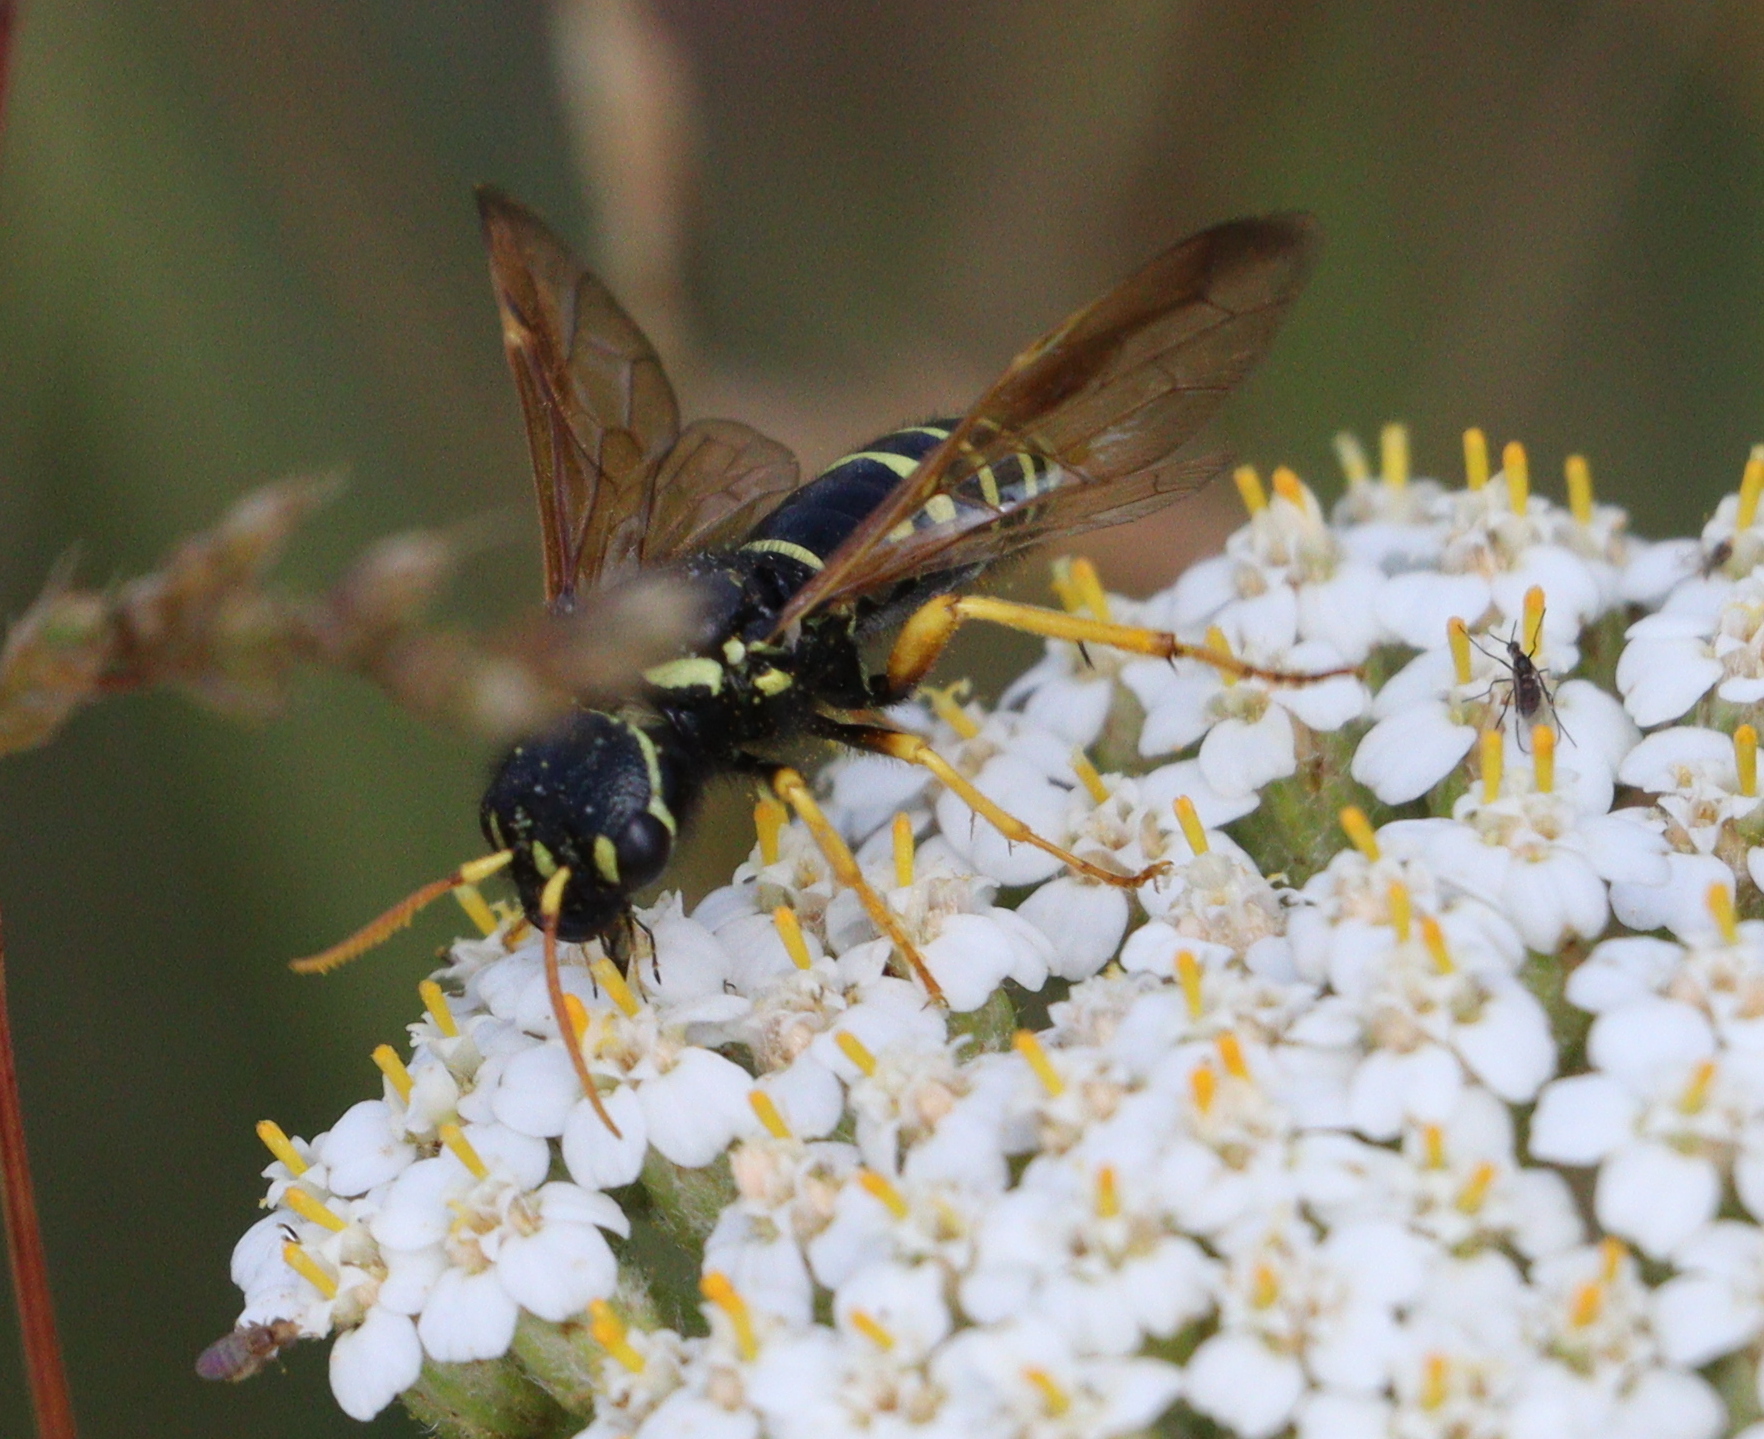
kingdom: Animalia
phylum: Arthropoda
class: Insecta
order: Hymenoptera
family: Megalodontesidae
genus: Megalodontes
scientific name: Megalodontes panzeri
